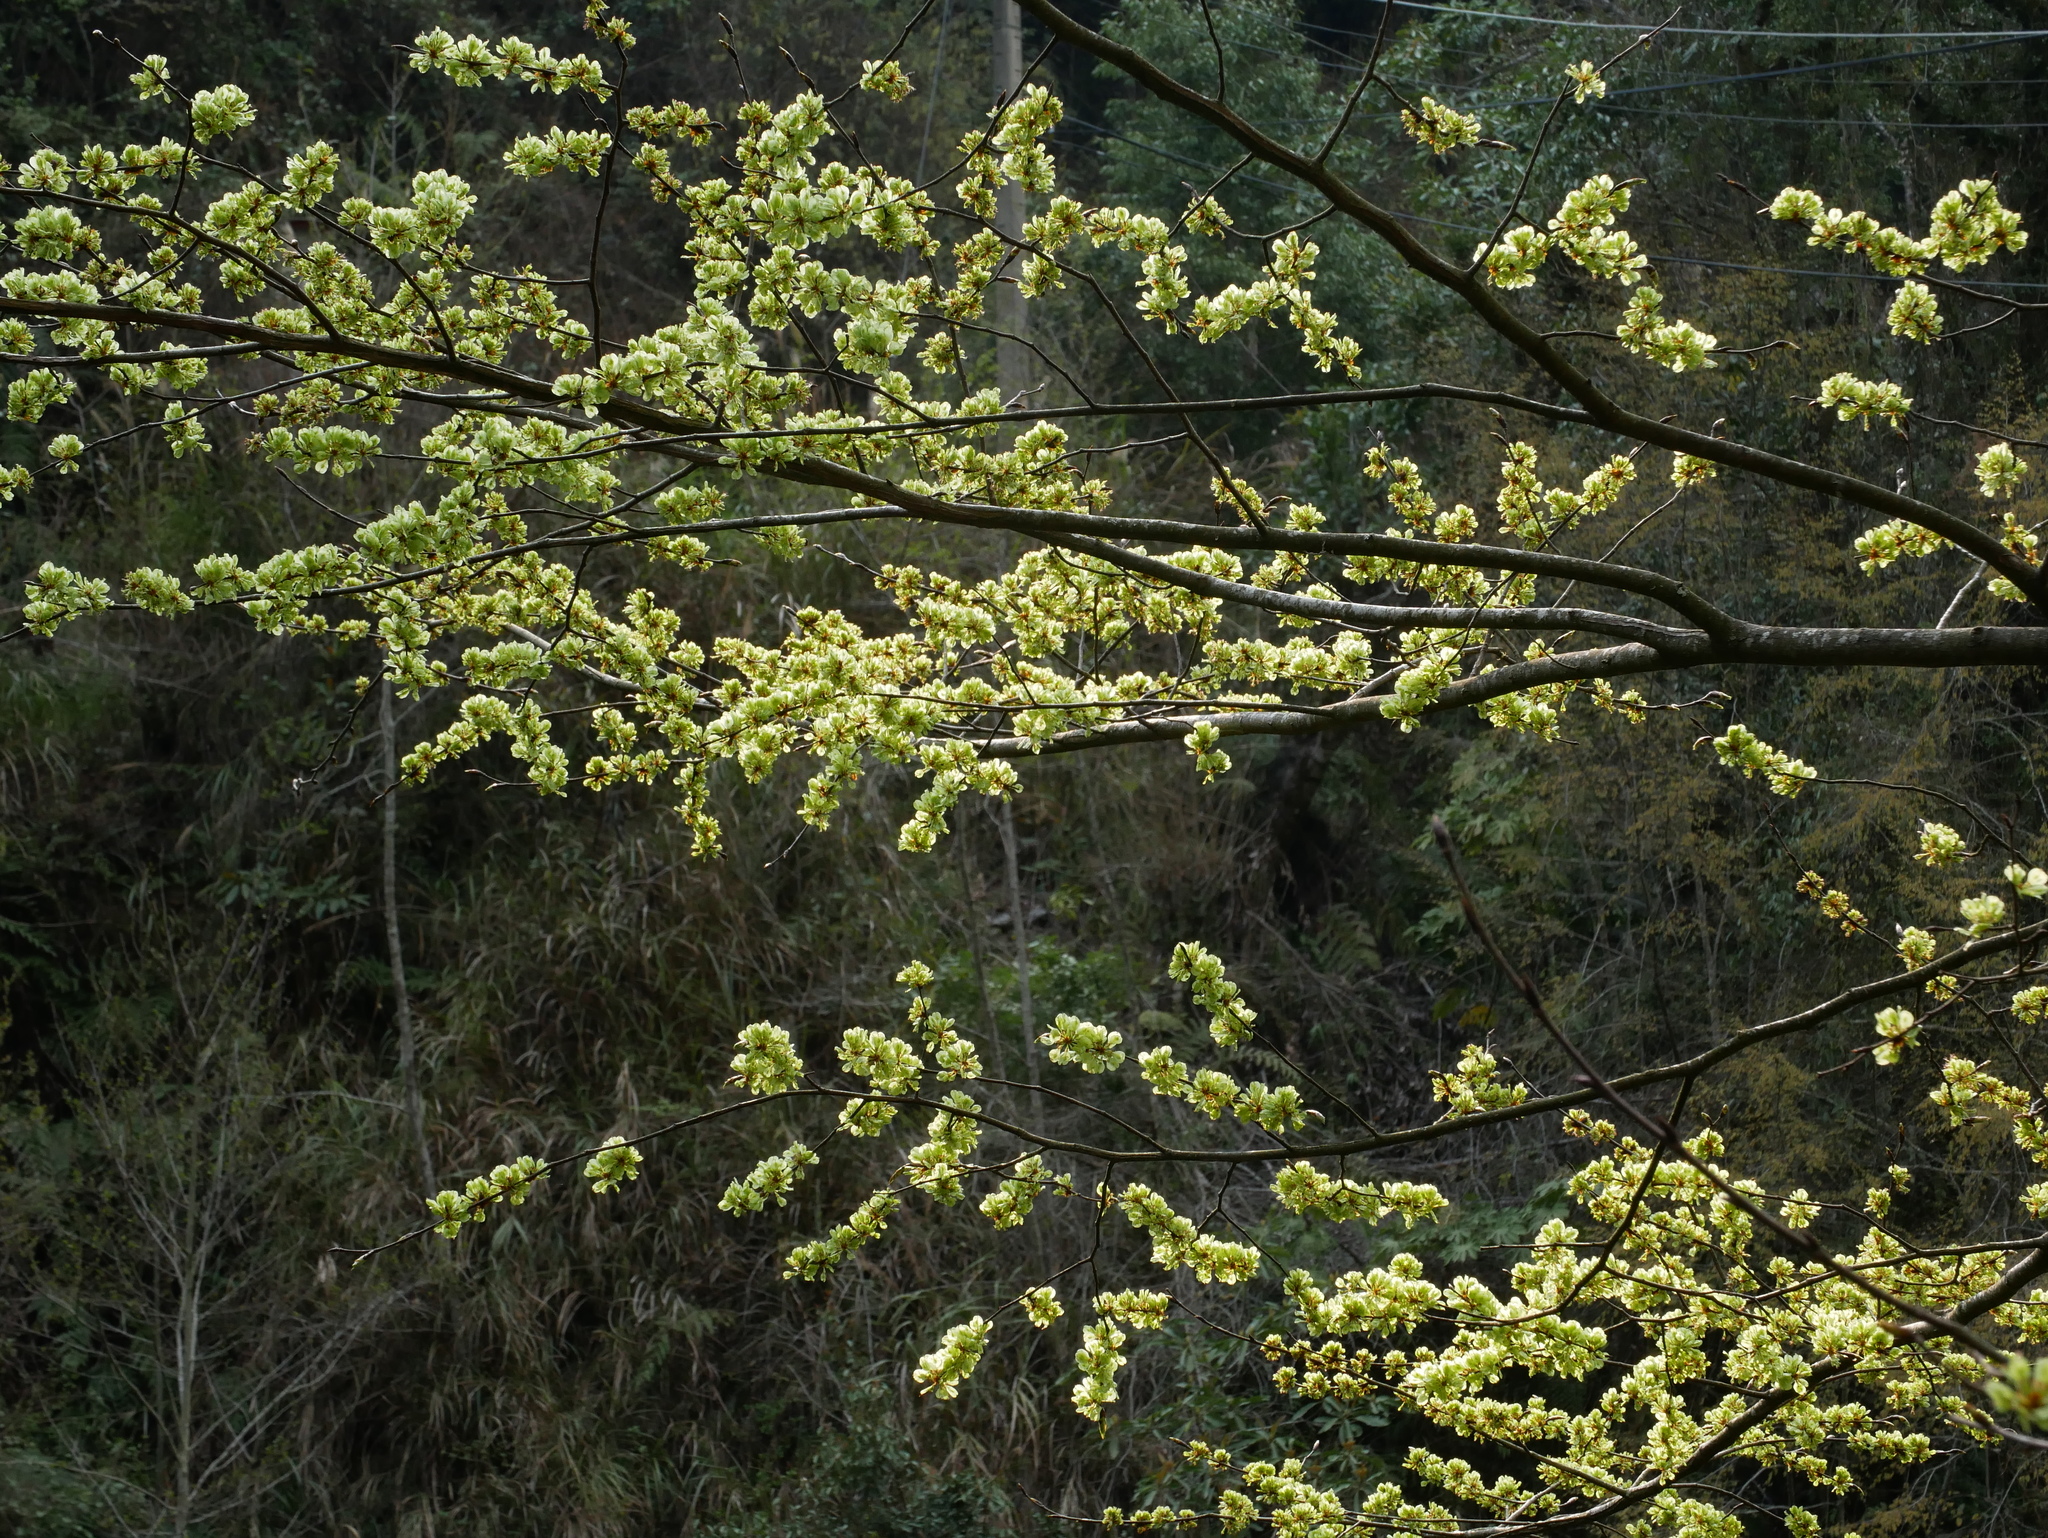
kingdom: Plantae
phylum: Tracheophyta
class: Magnoliopsida
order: Rosales
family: Ulmaceae
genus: Ulmus
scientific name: Ulmus uyematsui
